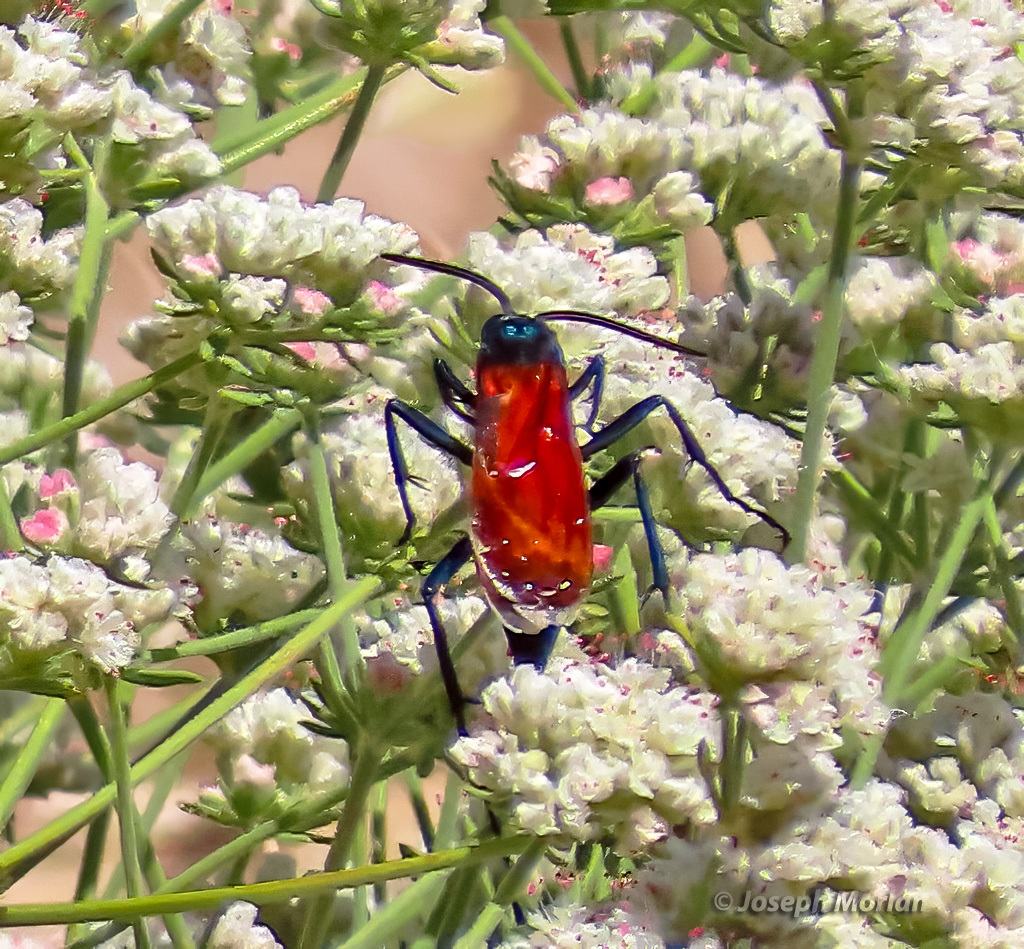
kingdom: Animalia
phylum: Arthropoda
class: Insecta
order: Hymenoptera
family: Pompilidae
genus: Pepsis
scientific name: Pepsis thisbe
